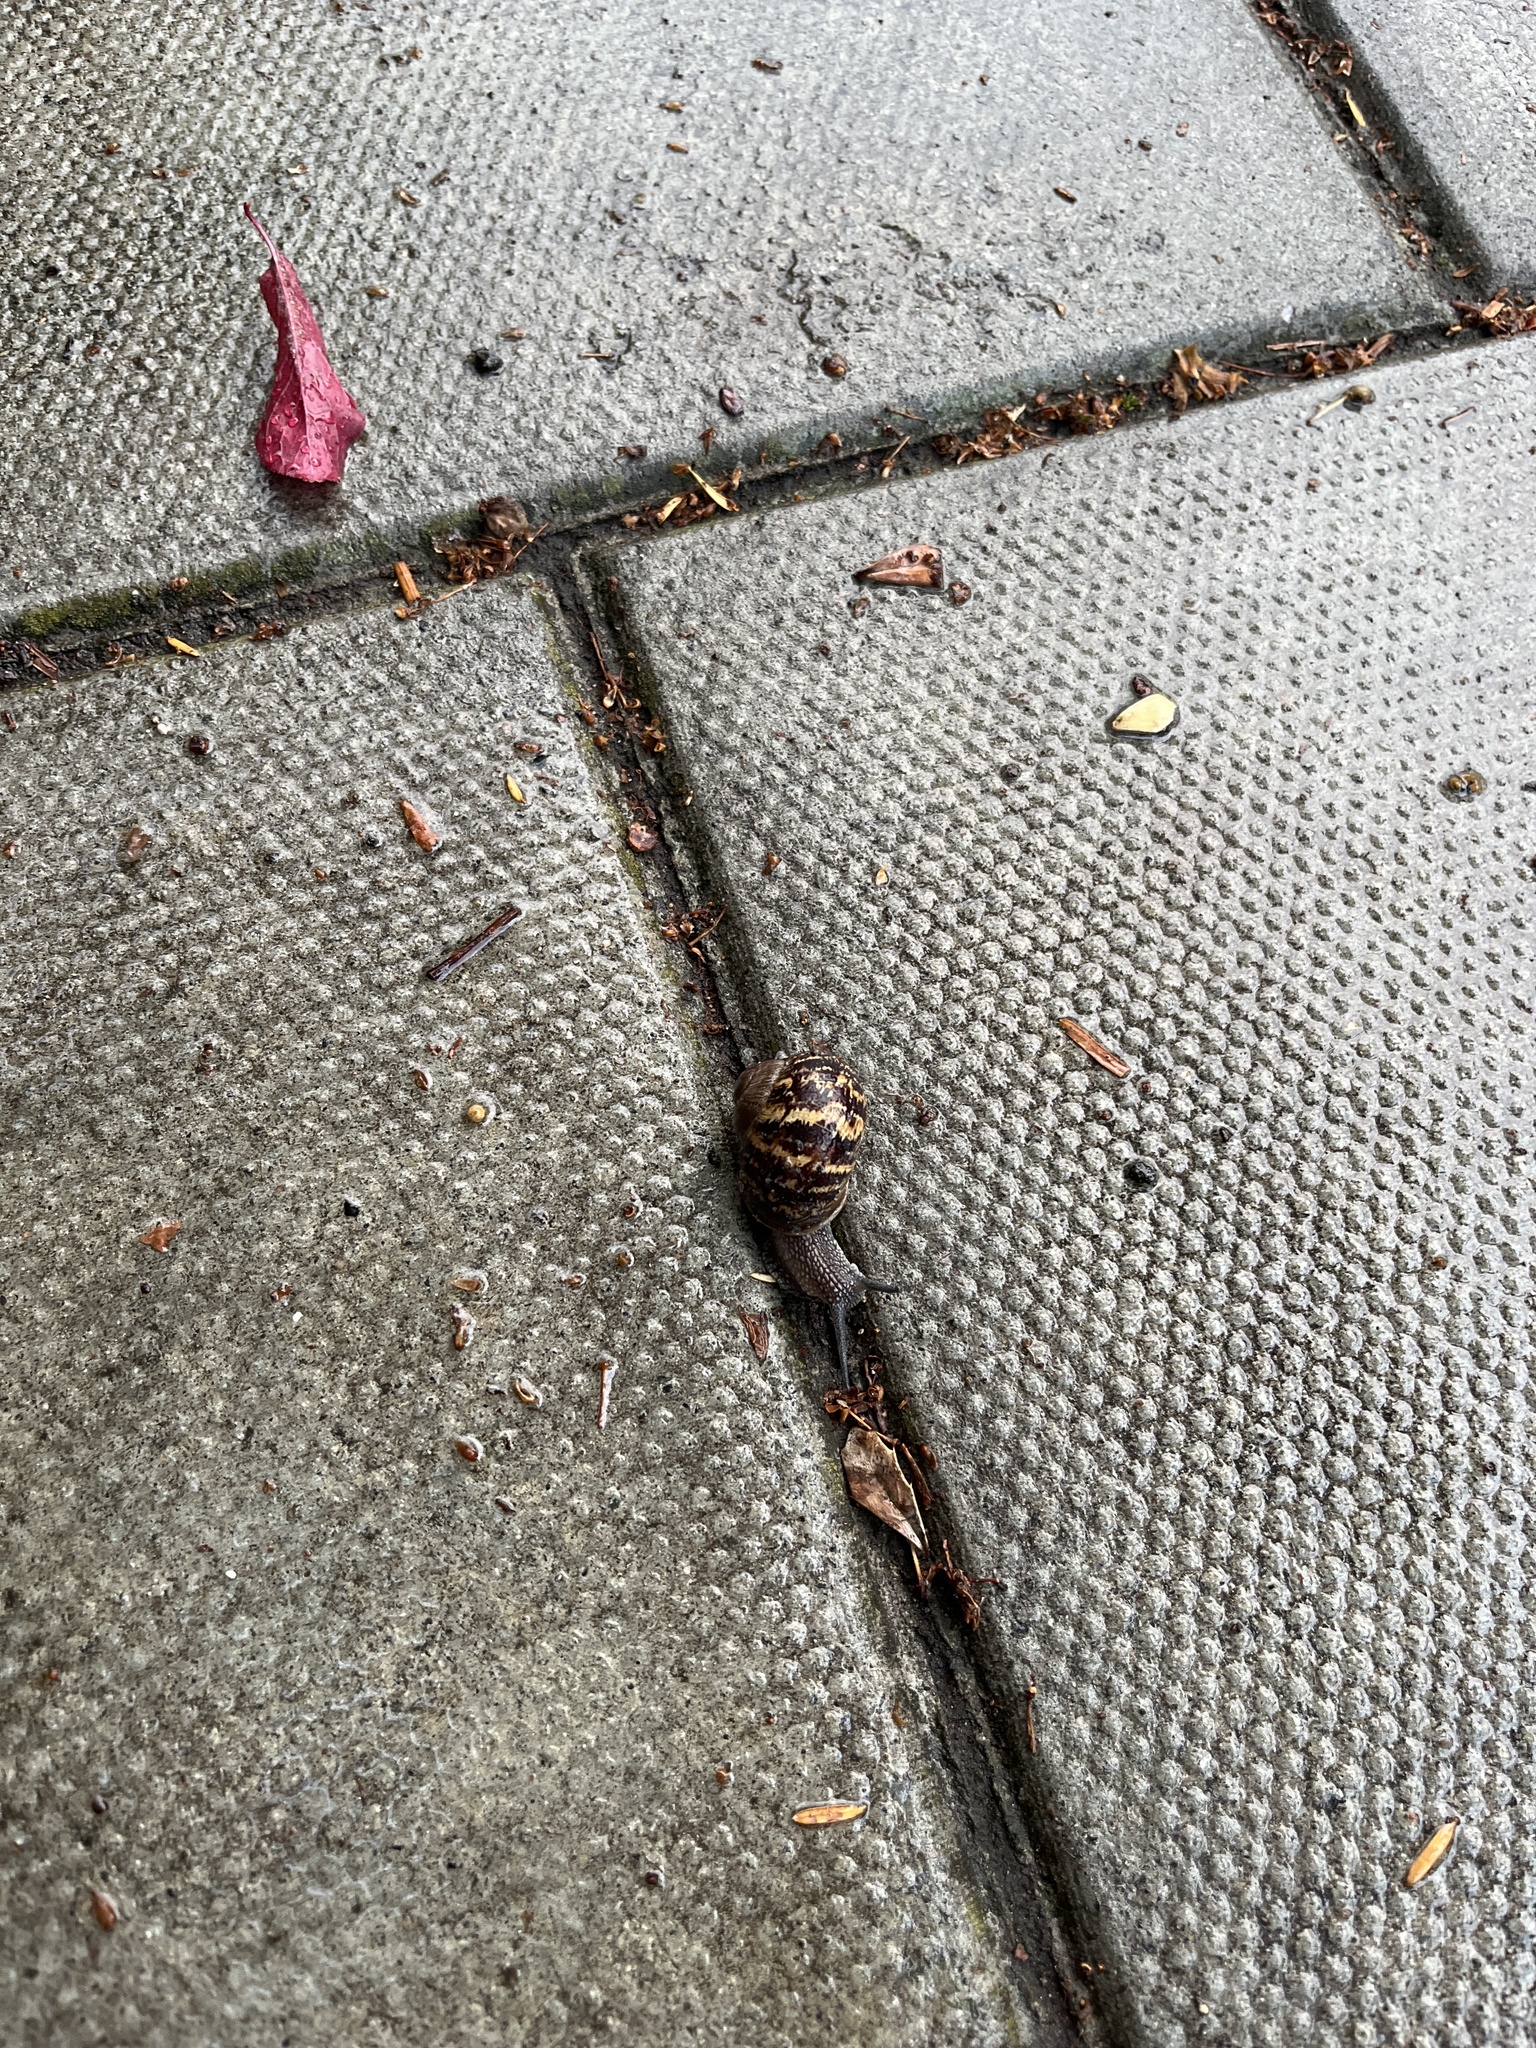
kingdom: Animalia
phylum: Mollusca
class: Gastropoda
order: Stylommatophora
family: Helicidae
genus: Cornu
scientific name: Cornu aspersum
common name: Brown garden snail
